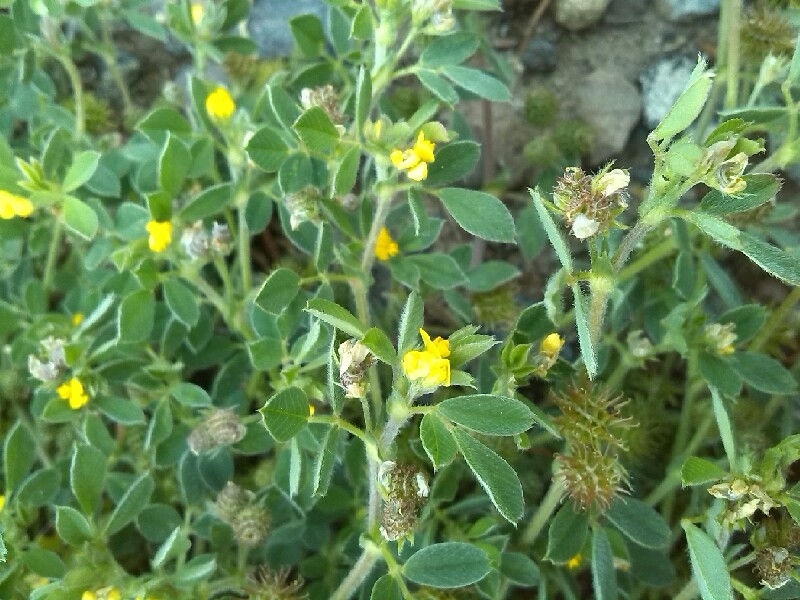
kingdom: Plantae
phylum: Tracheophyta
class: Magnoliopsida
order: Fabales
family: Fabaceae
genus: Medicago
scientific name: Medicago minima
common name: Little bur-clover
